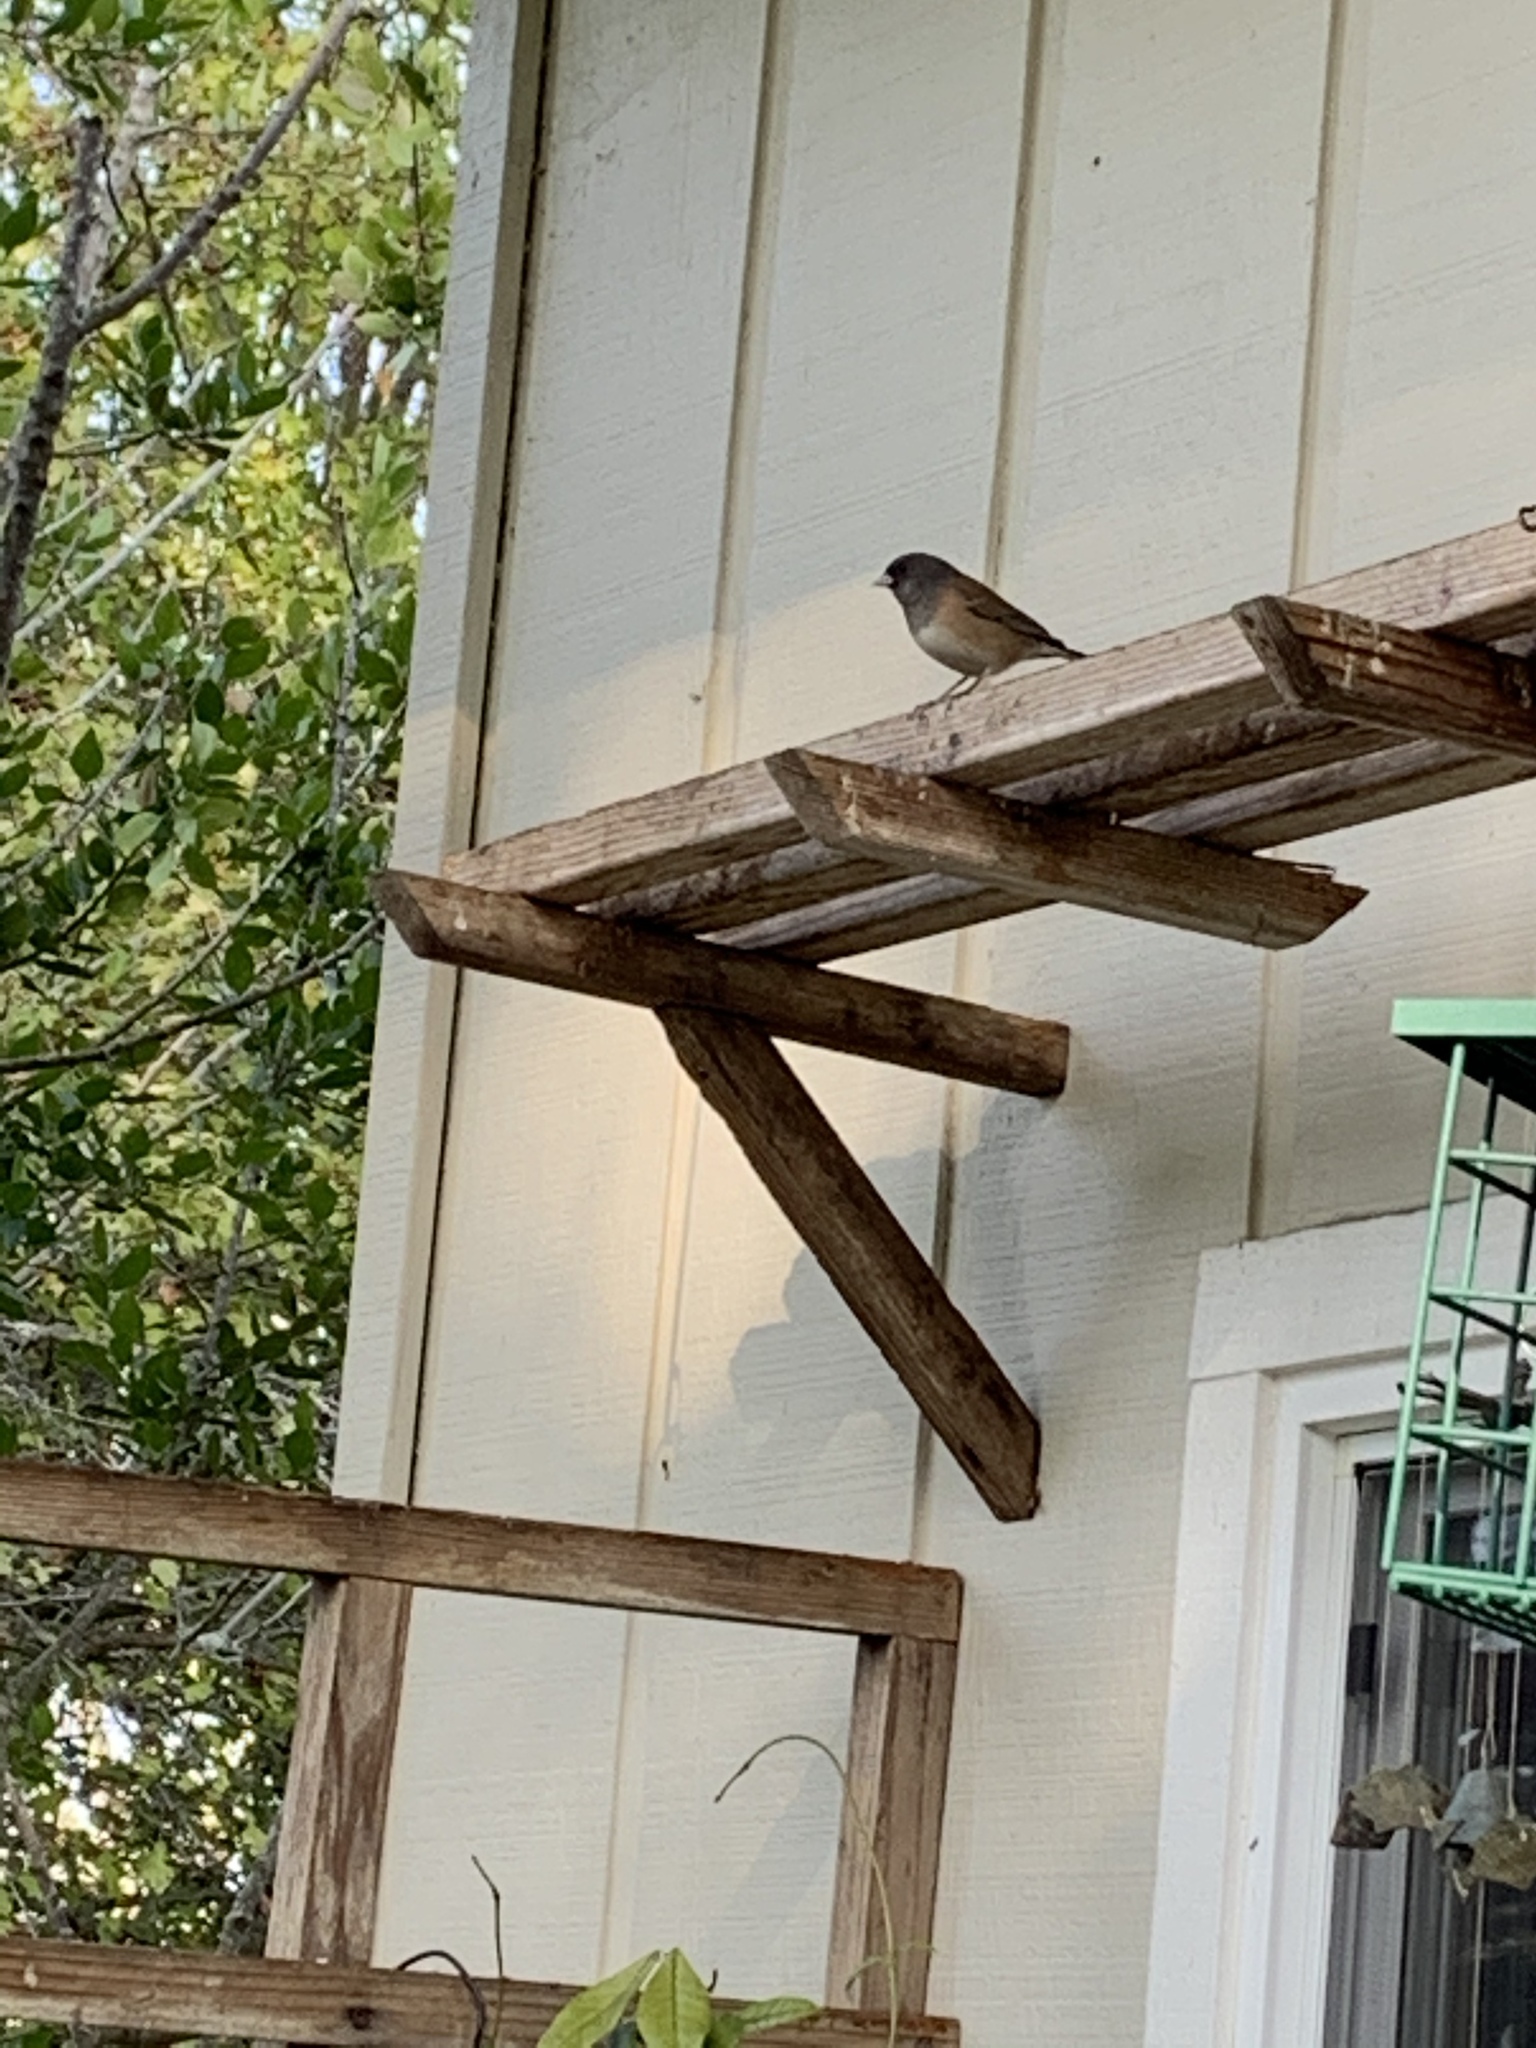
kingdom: Animalia
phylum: Chordata
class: Aves
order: Passeriformes
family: Passerellidae
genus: Junco
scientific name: Junco hyemalis
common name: Dark-eyed junco
